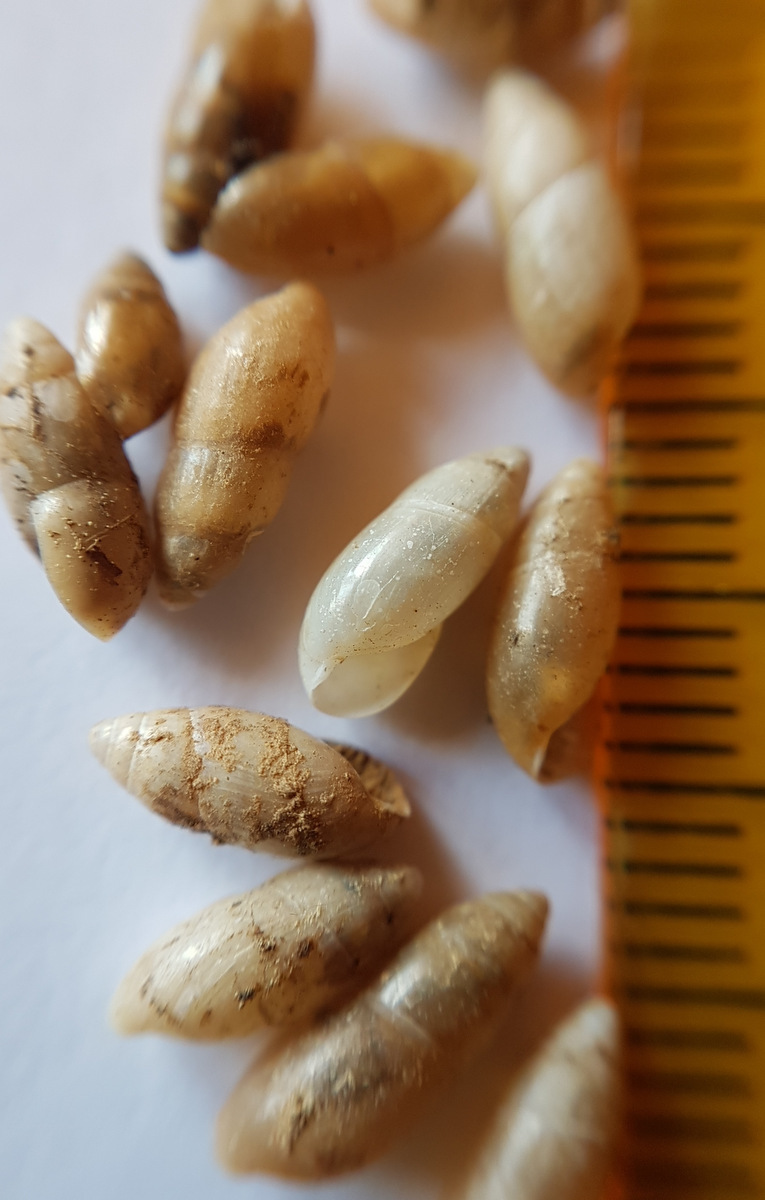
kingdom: Animalia
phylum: Mollusca
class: Gastropoda
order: Stylommatophora
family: Ferussaciidae
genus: Ferussacia
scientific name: Ferussacia folliculum
